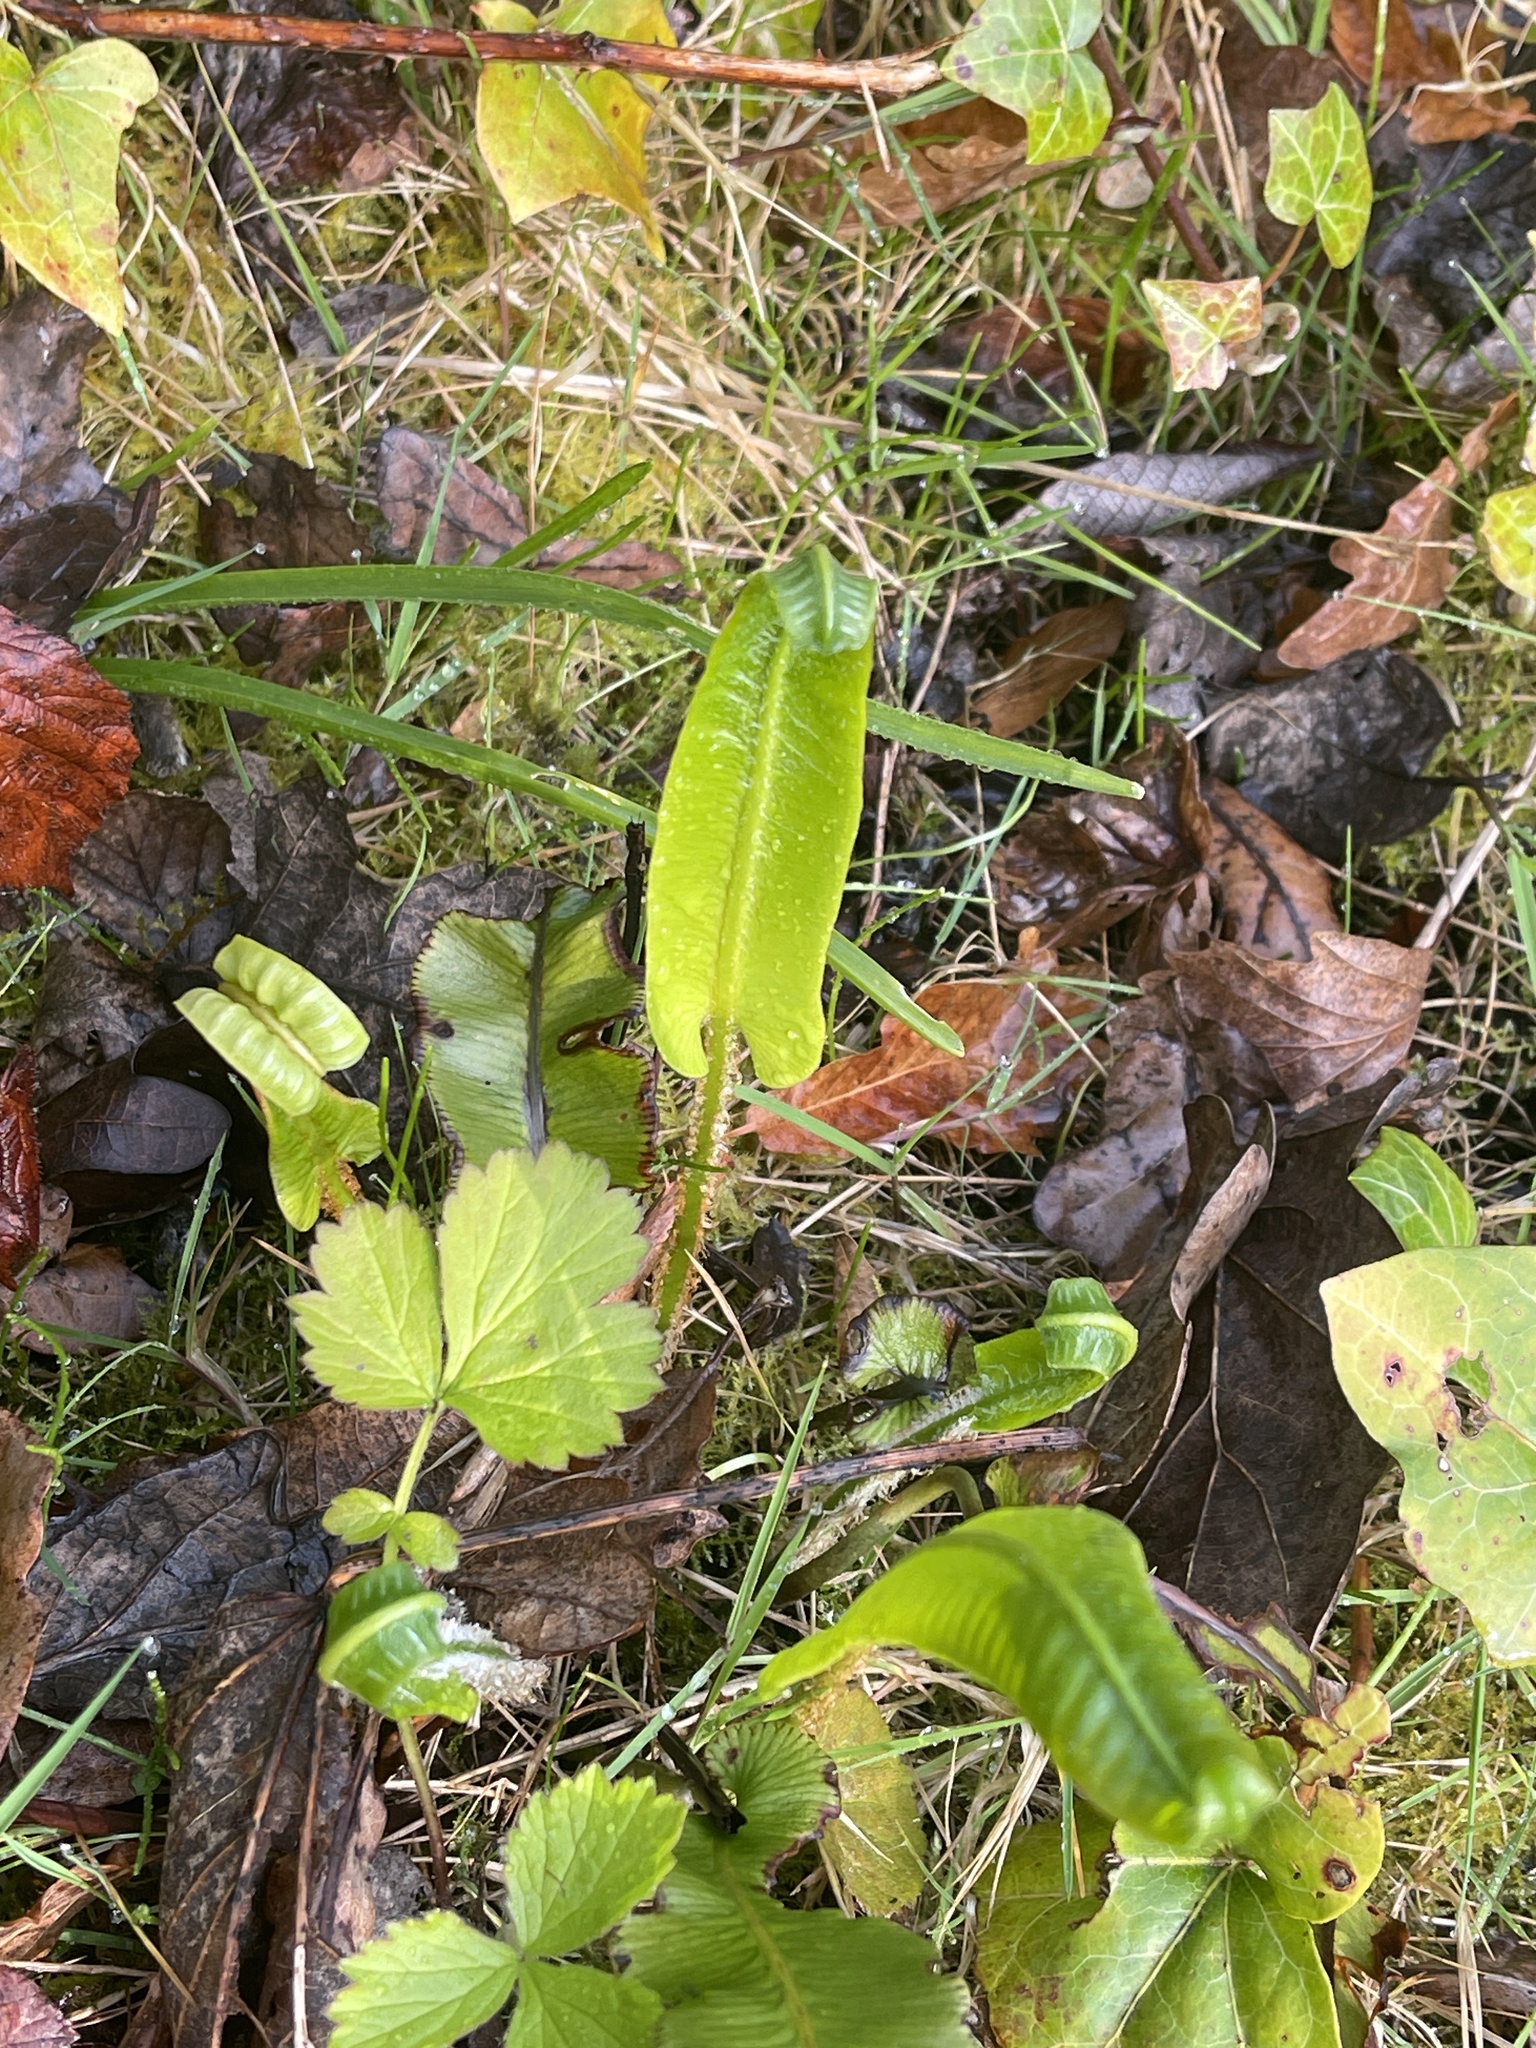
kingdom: Plantae
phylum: Tracheophyta
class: Polypodiopsida
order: Polypodiales
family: Aspleniaceae
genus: Asplenium
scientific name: Asplenium scolopendrium
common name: Hart's-tongue fern
